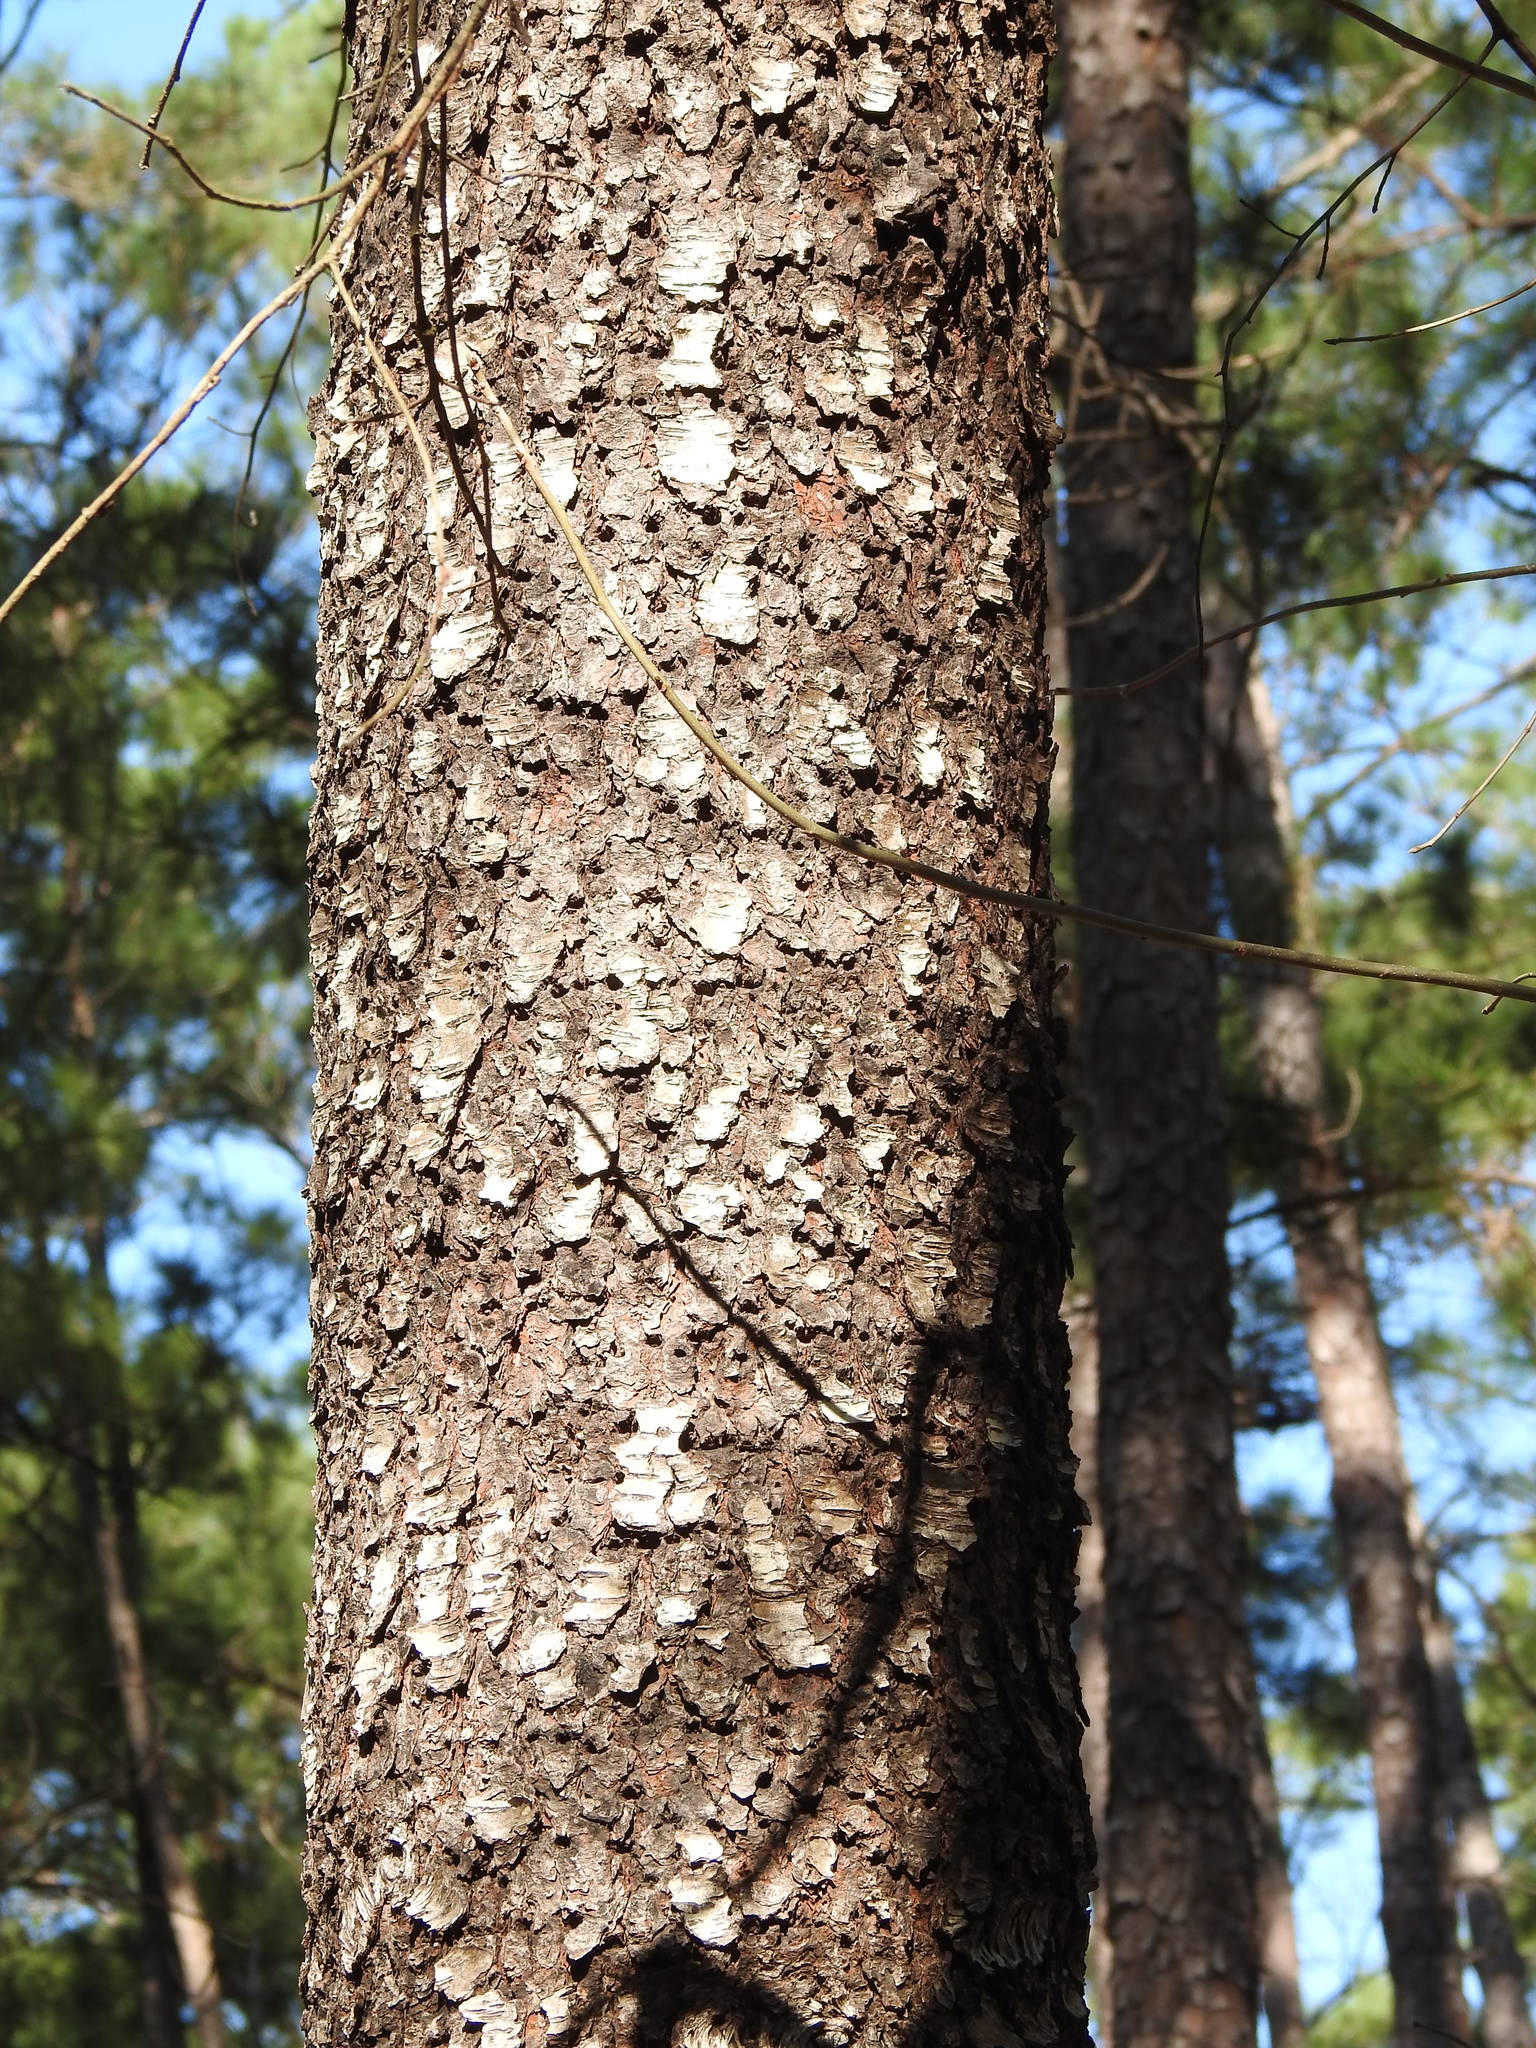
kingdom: Plantae
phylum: Tracheophyta
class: Magnoliopsida
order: Rosales
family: Rosaceae
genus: Prunus
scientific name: Prunus serotina
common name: Black cherry
